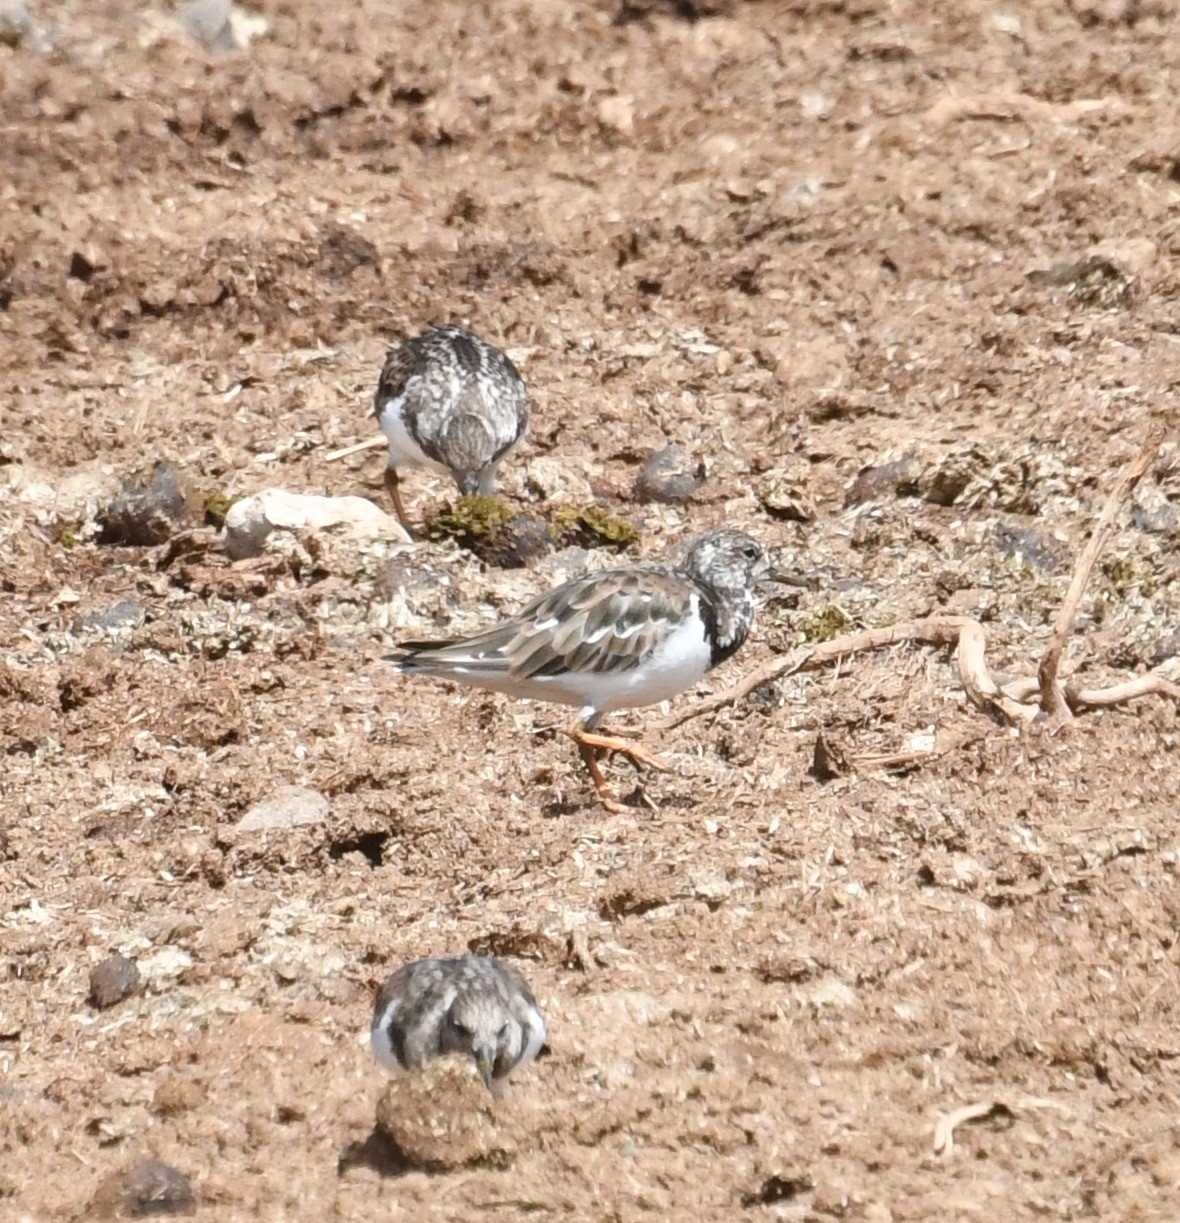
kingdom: Animalia
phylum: Chordata
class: Aves
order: Charadriiformes
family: Scolopacidae
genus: Arenaria
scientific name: Arenaria interpres
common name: Ruddy turnstone
